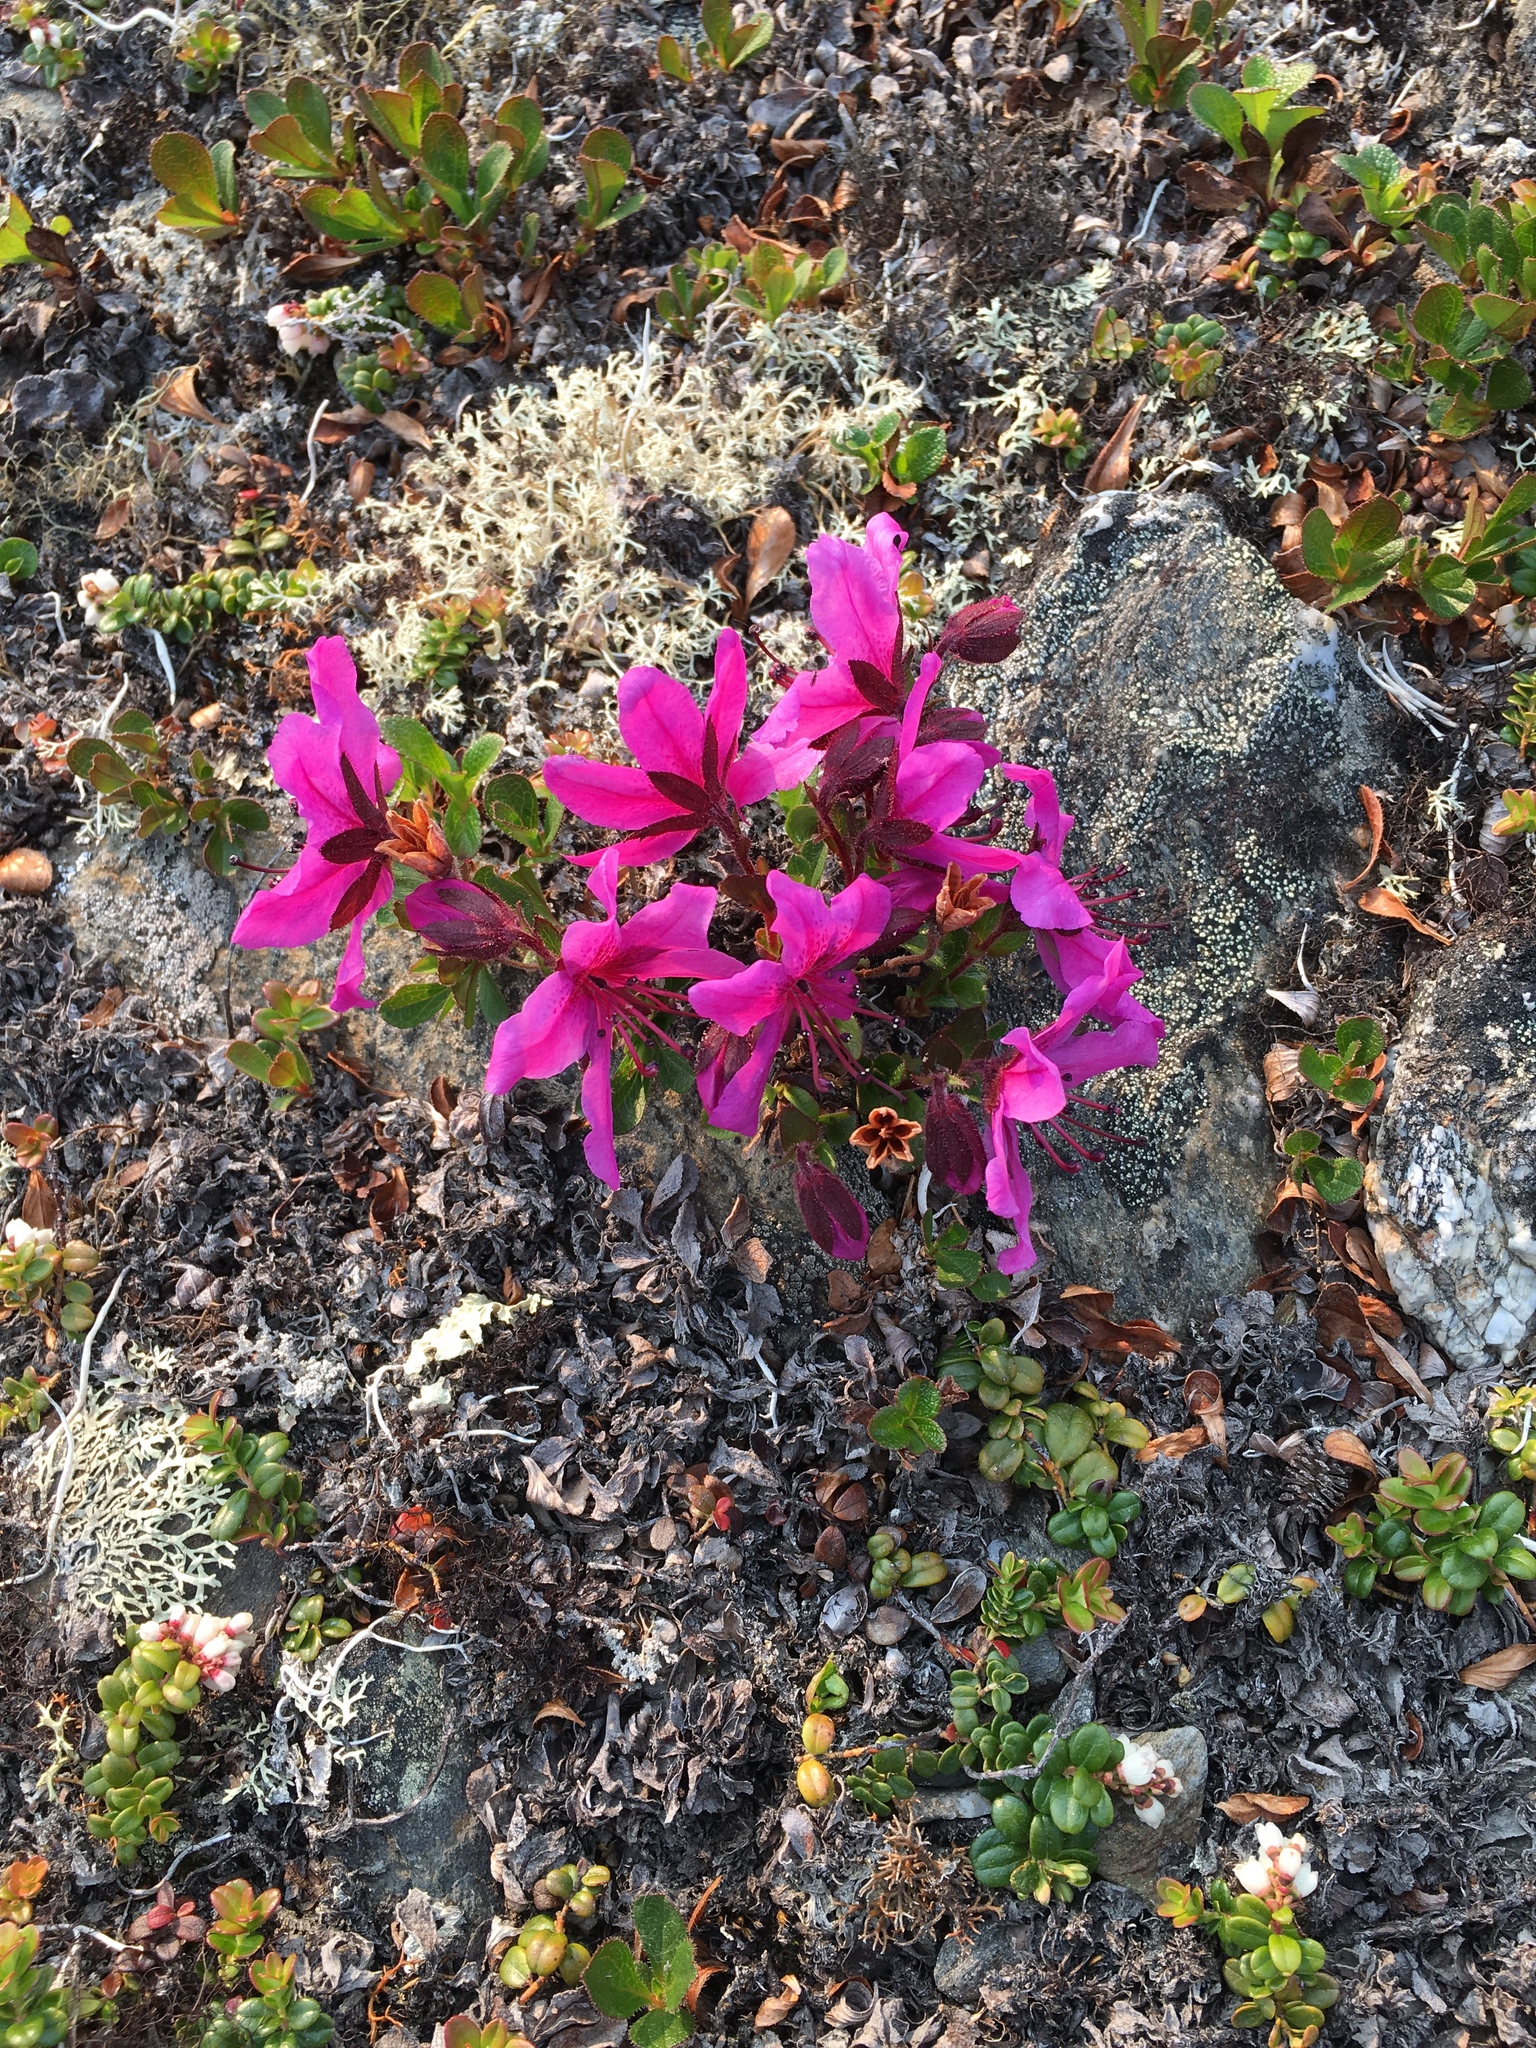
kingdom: Plantae
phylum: Tracheophyta
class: Magnoliopsida
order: Ericales
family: Ericaceae
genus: Rhododendron
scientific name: Rhododendron glandulosum
